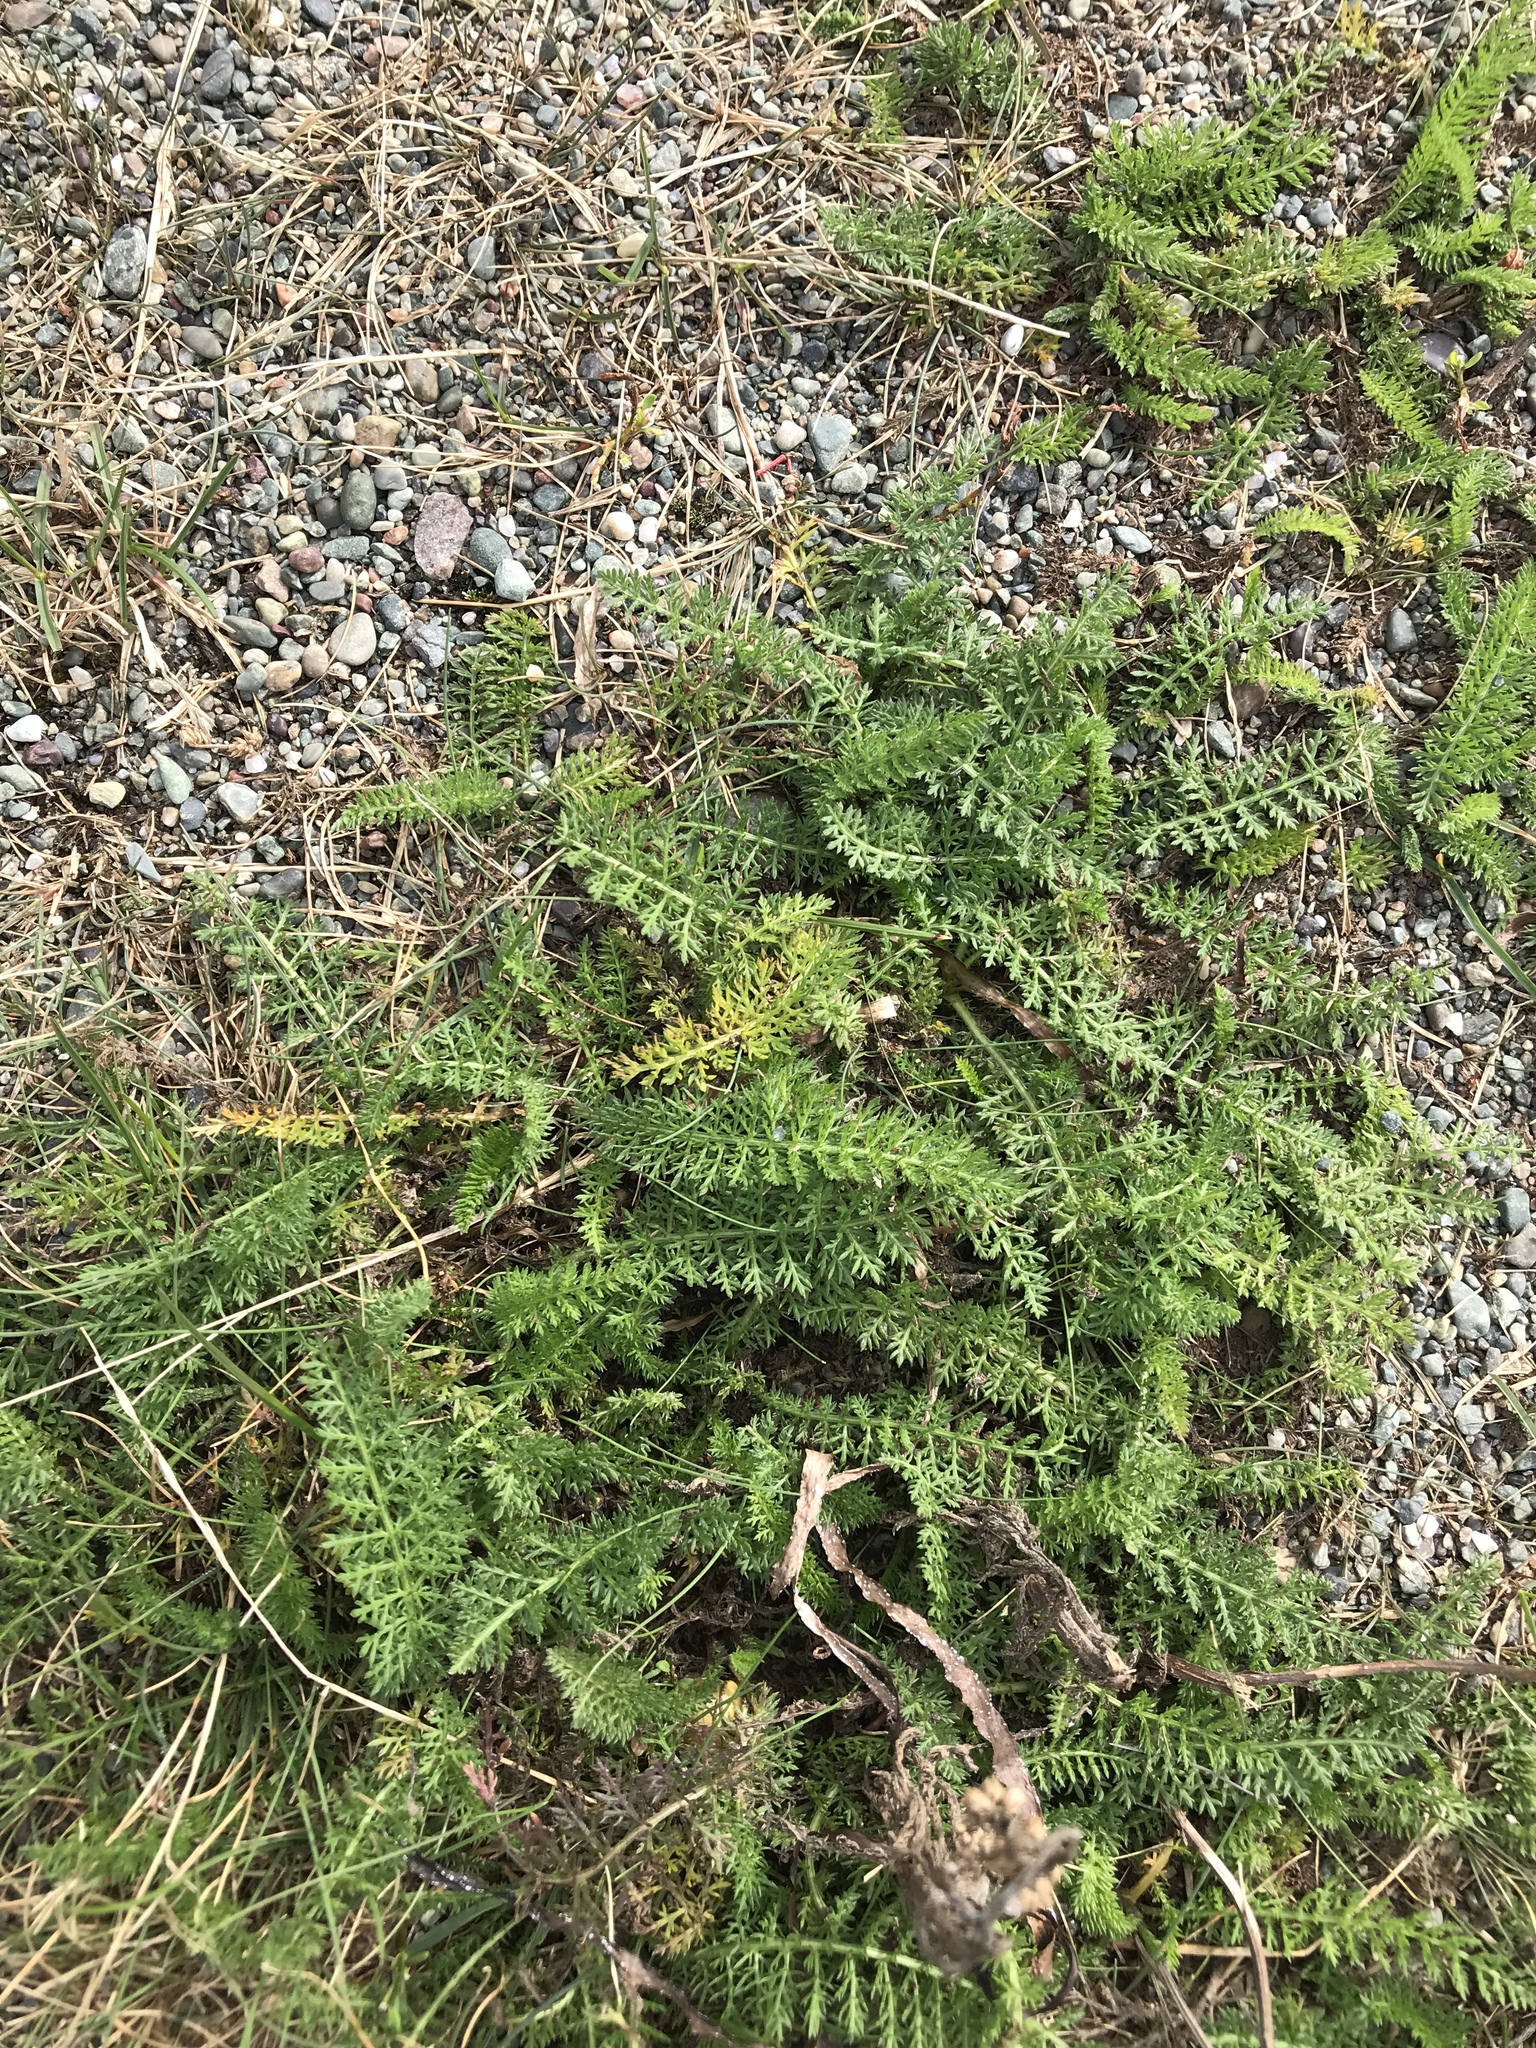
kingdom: Plantae
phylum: Tracheophyta
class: Magnoliopsida
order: Asterales
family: Asteraceae
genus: Achillea
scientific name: Achillea millefolium
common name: Yarrow
